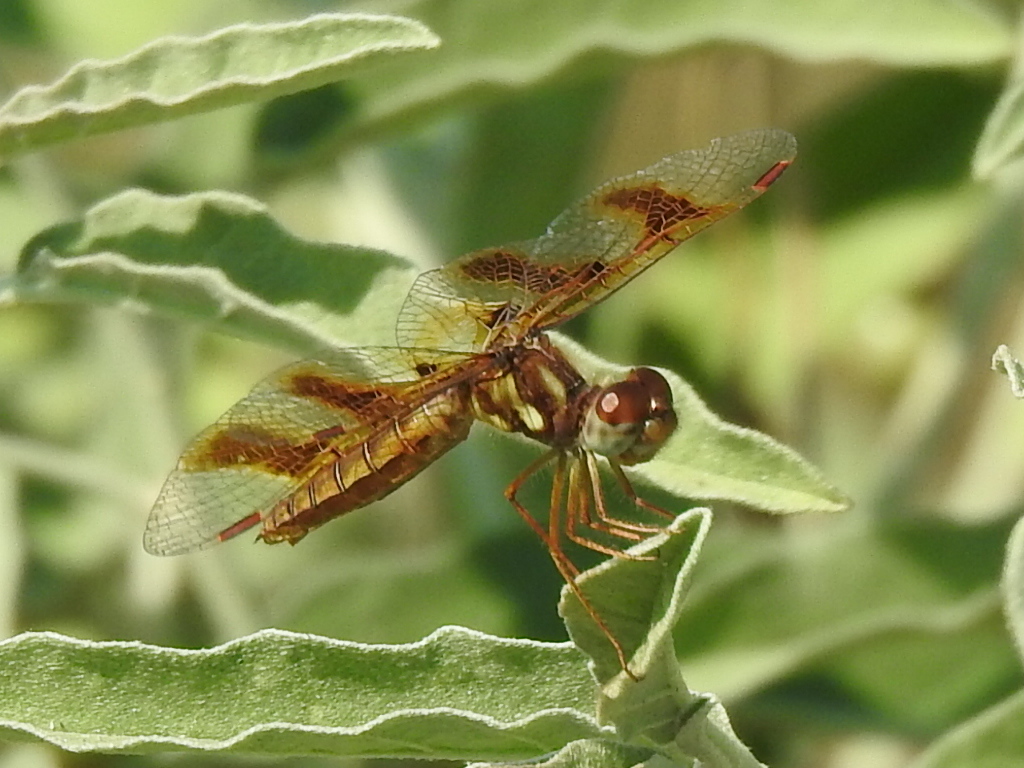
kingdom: Animalia
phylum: Arthropoda
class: Insecta
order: Odonata
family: Libellulidae
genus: Perithemis
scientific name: Perithemis tenera
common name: Eastern amberwing
